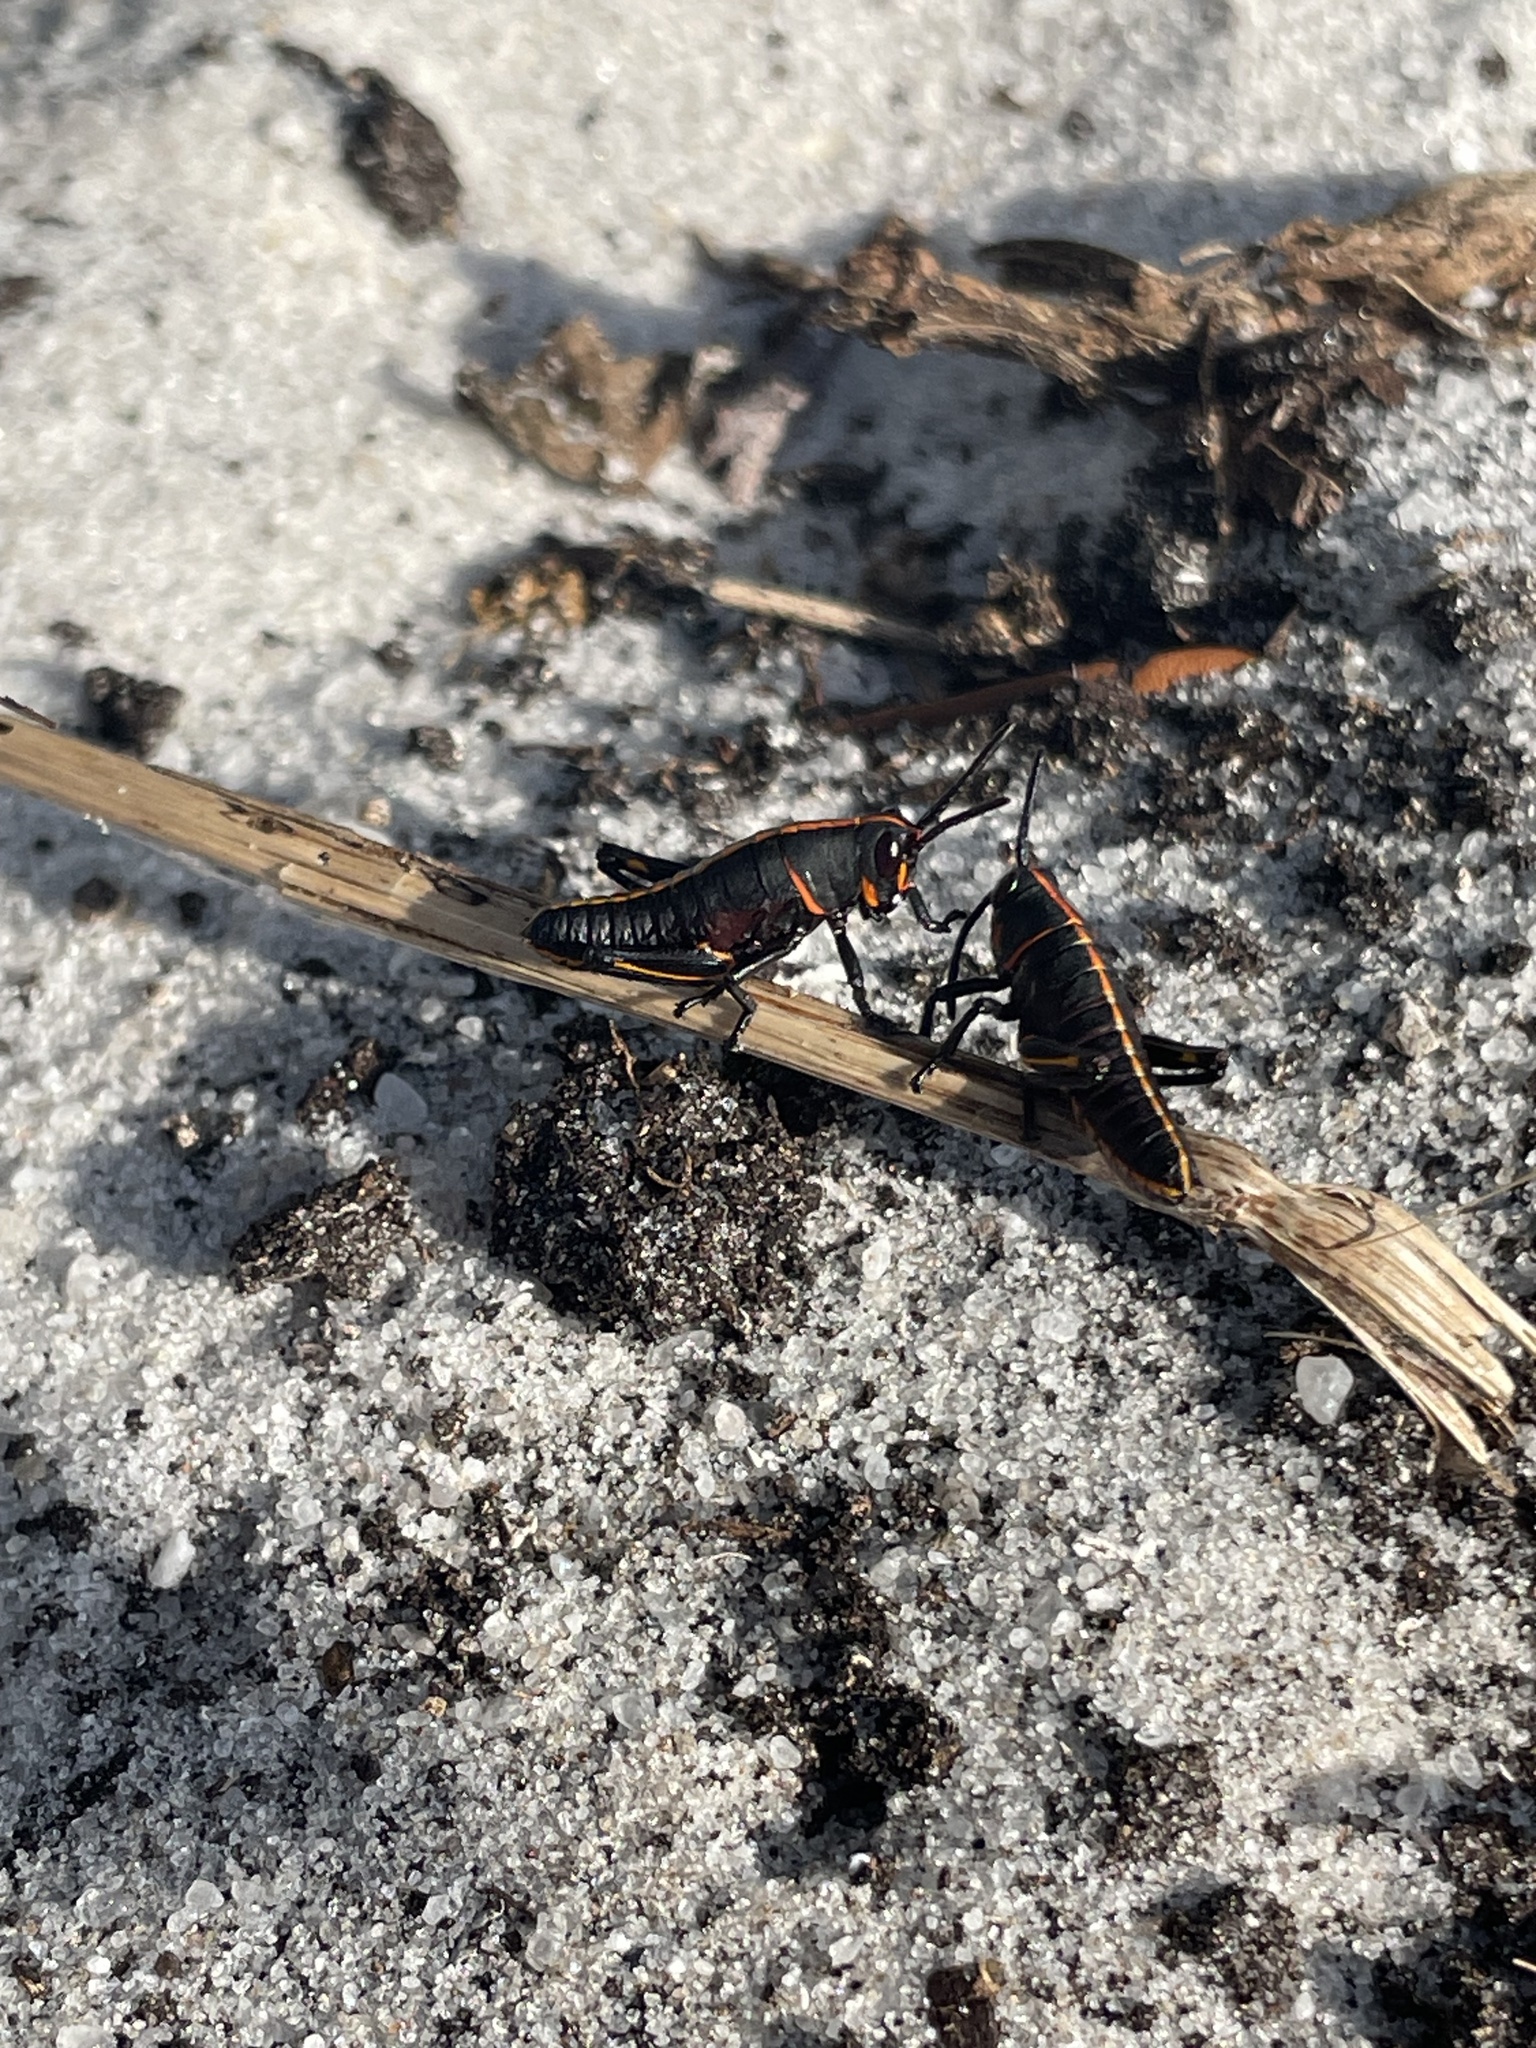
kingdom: Animalia
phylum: Arthropoda
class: Insecta
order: Orthoptera
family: Romaleidae
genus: Romalea
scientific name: Romalea microptera
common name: Eastern lubber grasshopper
